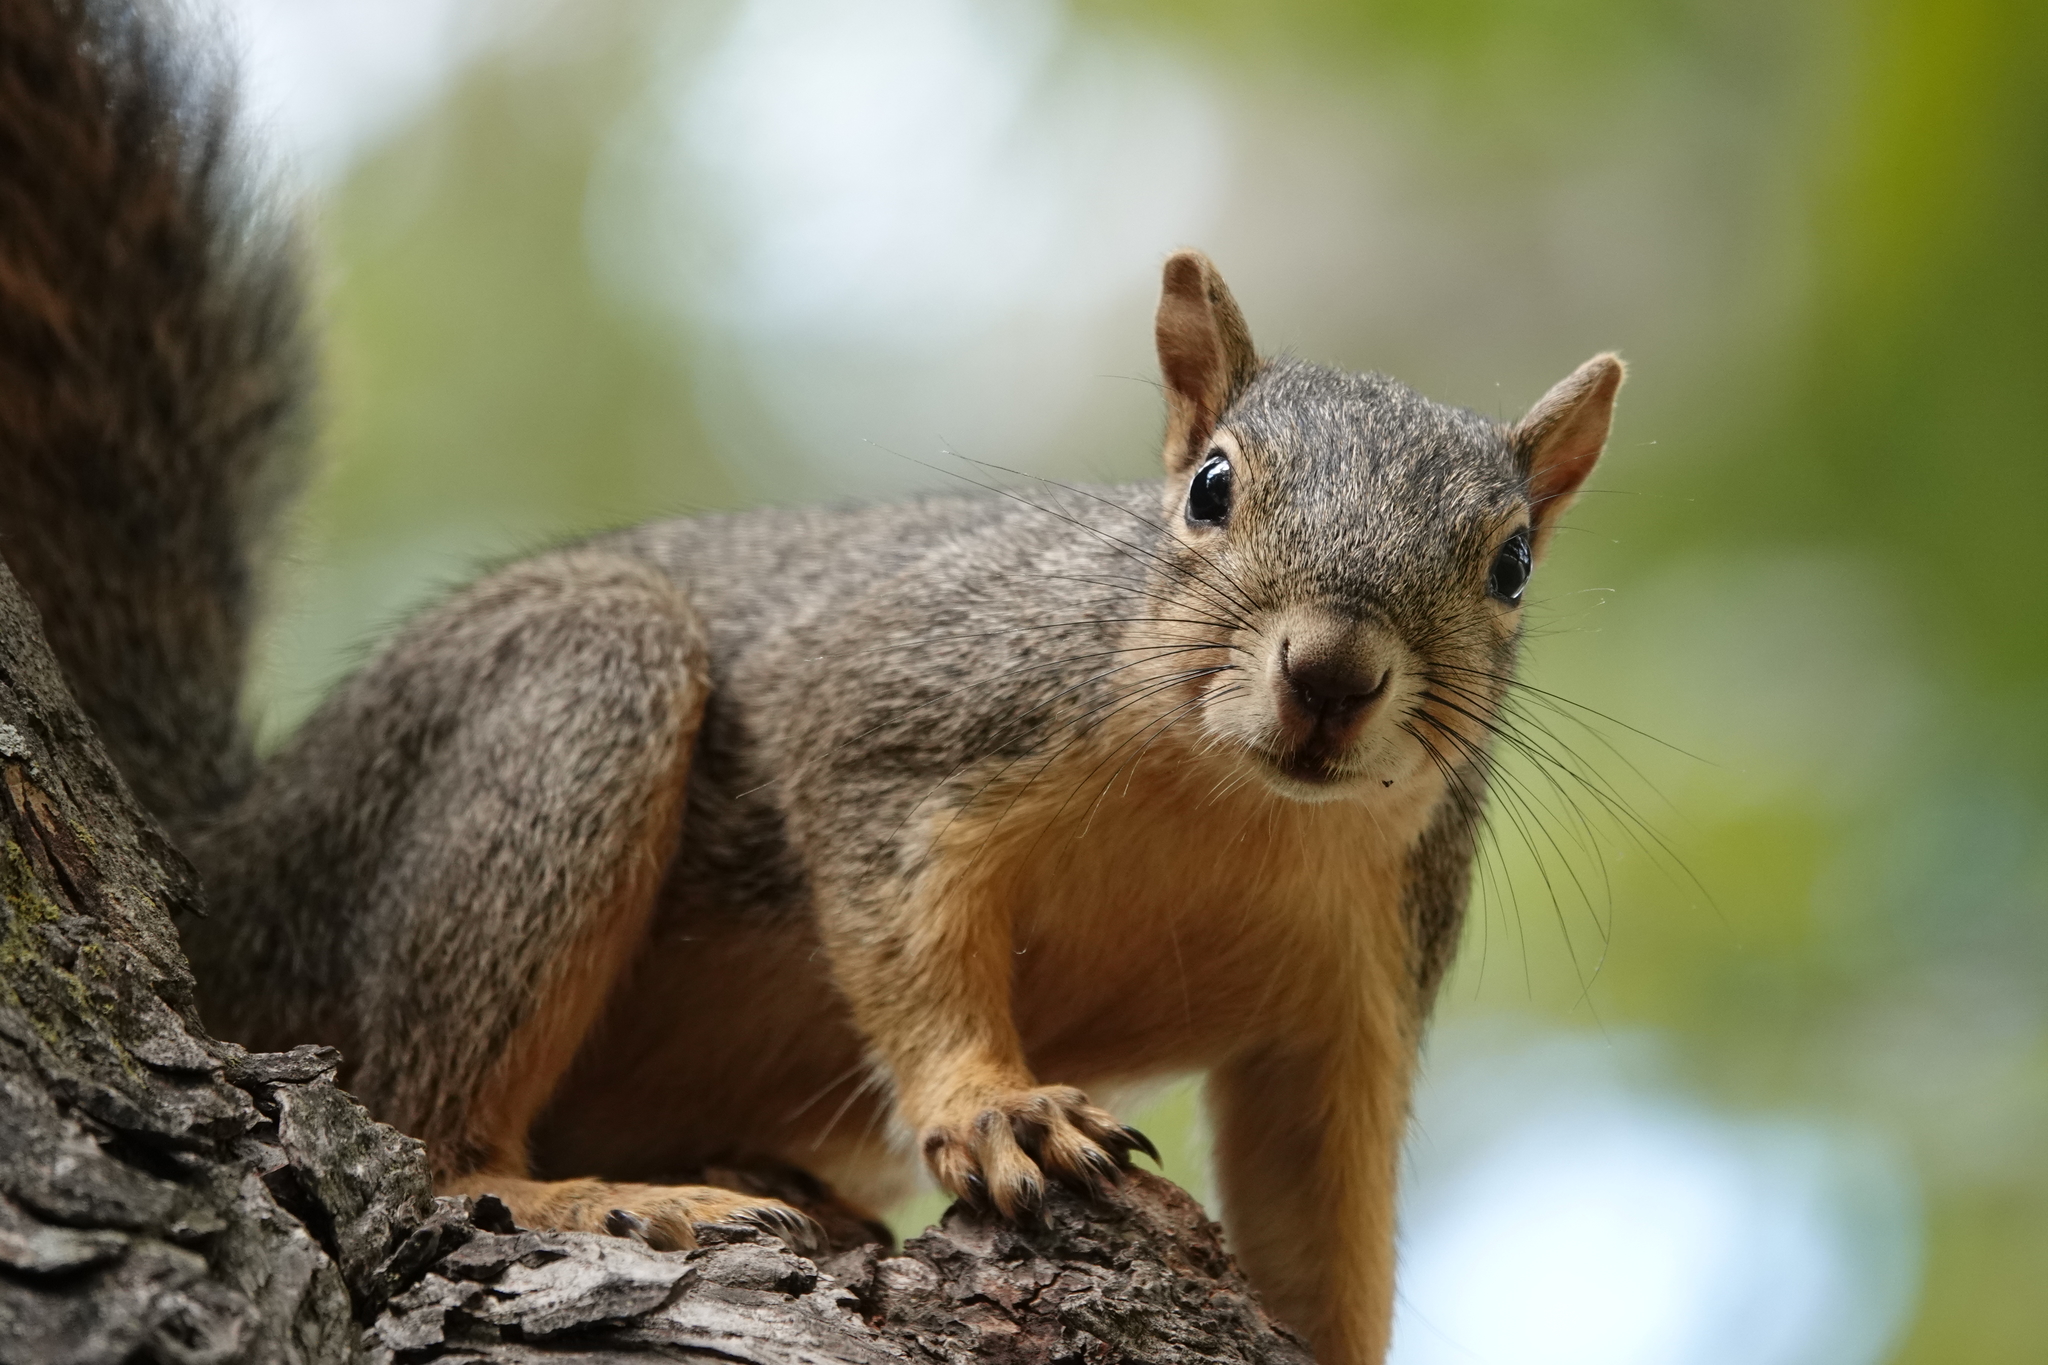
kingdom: Animalia
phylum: Chordata
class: Mammalia
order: Rodentia
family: Sciuridae
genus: Sciurus
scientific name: Sciurus niger
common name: Fox squirrel
